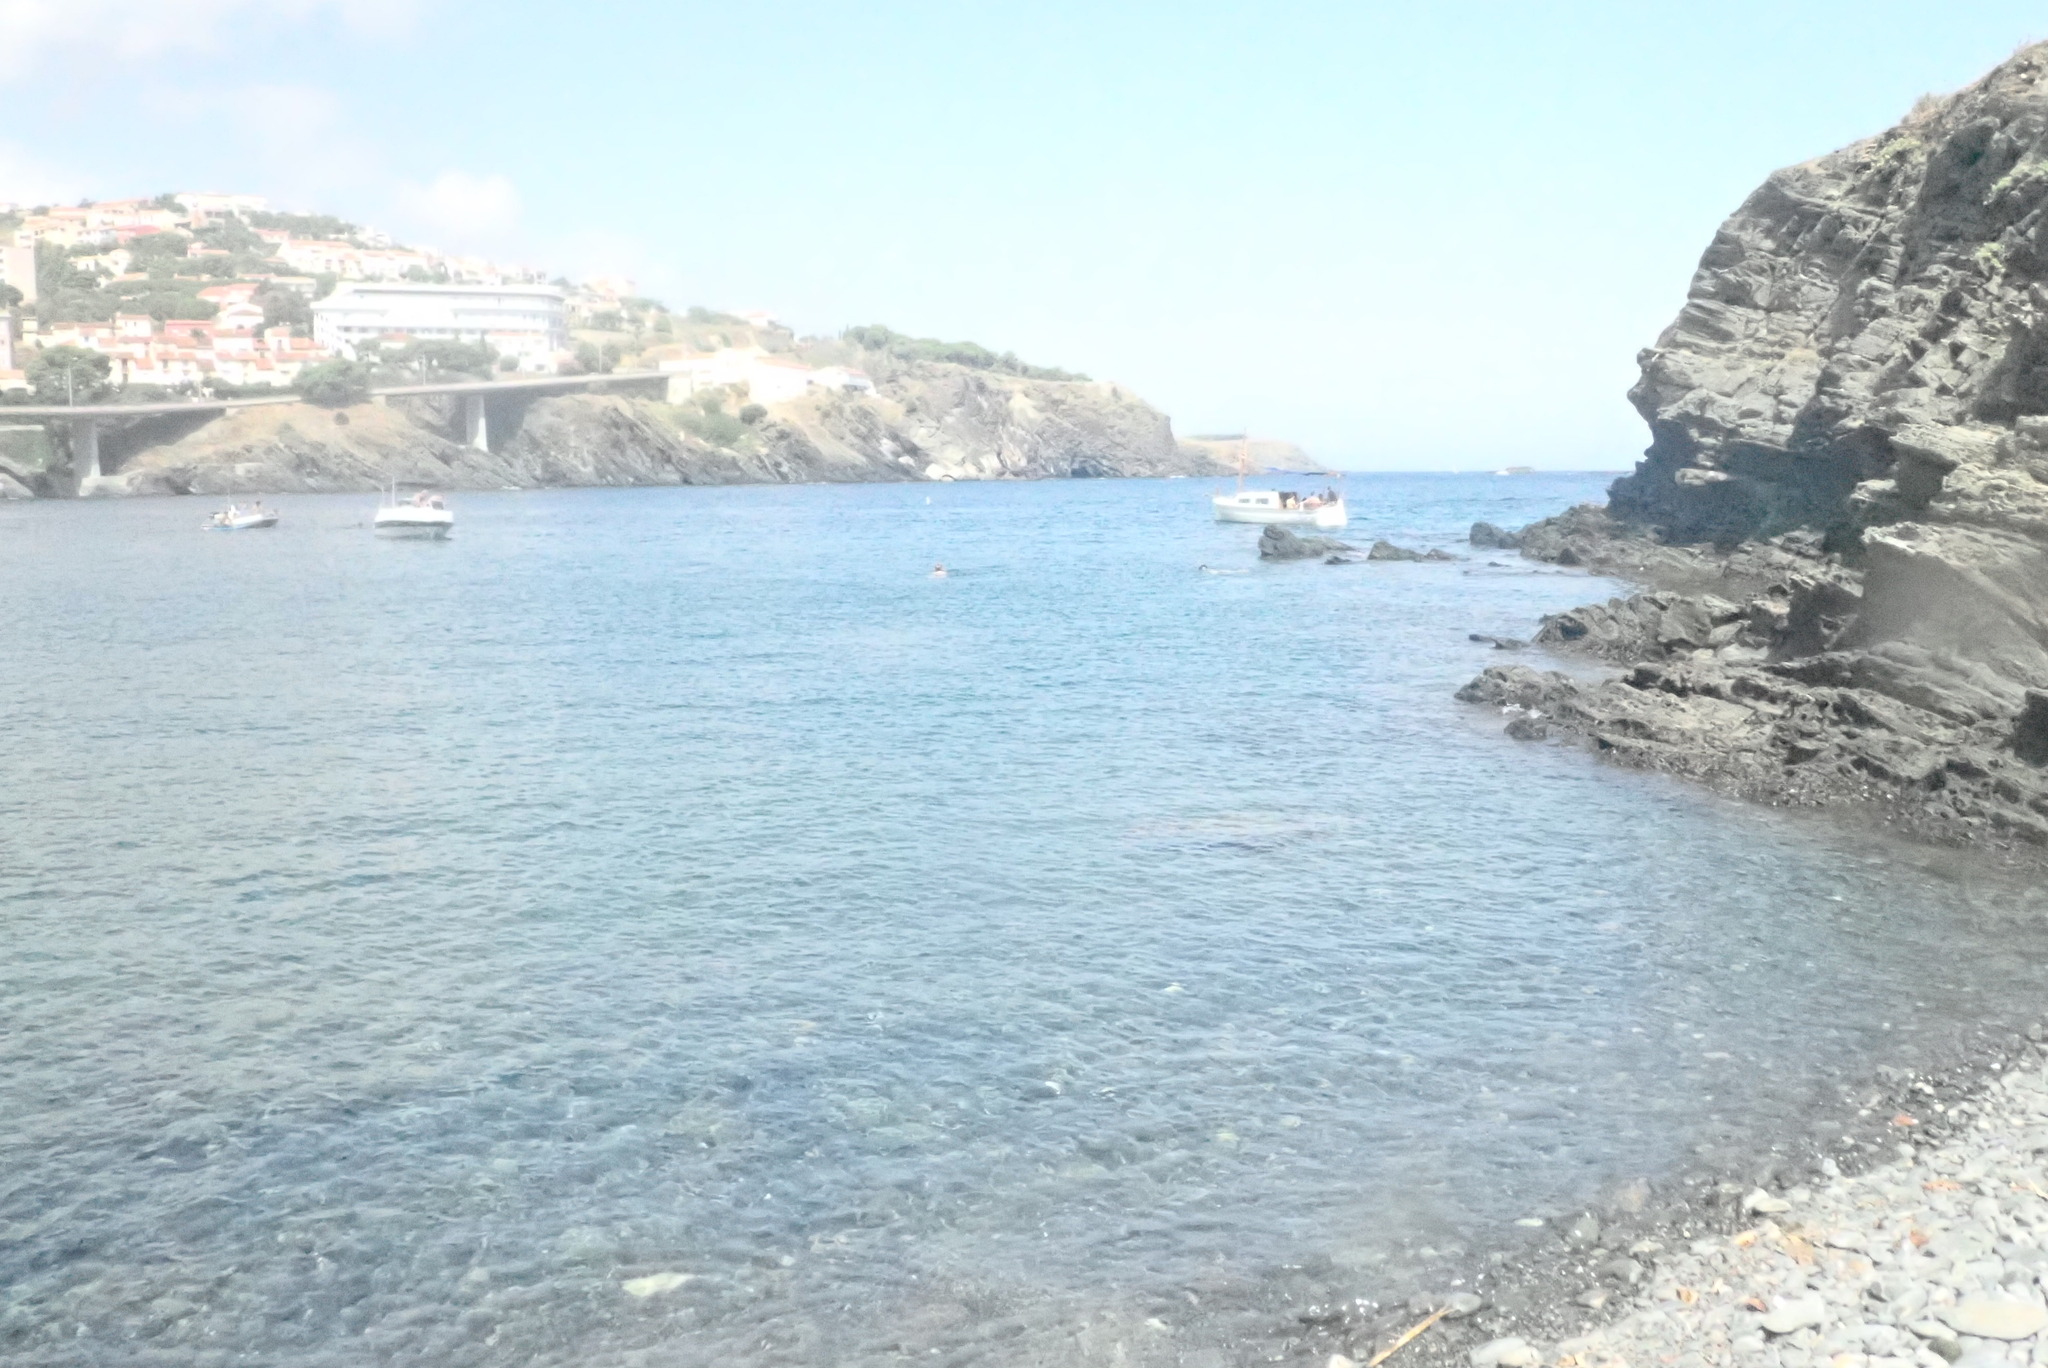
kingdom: Animalia
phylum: Chordata
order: Perciformes
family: Gobiidae
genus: Gobius
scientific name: Gobius cobitis
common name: Giant goby
